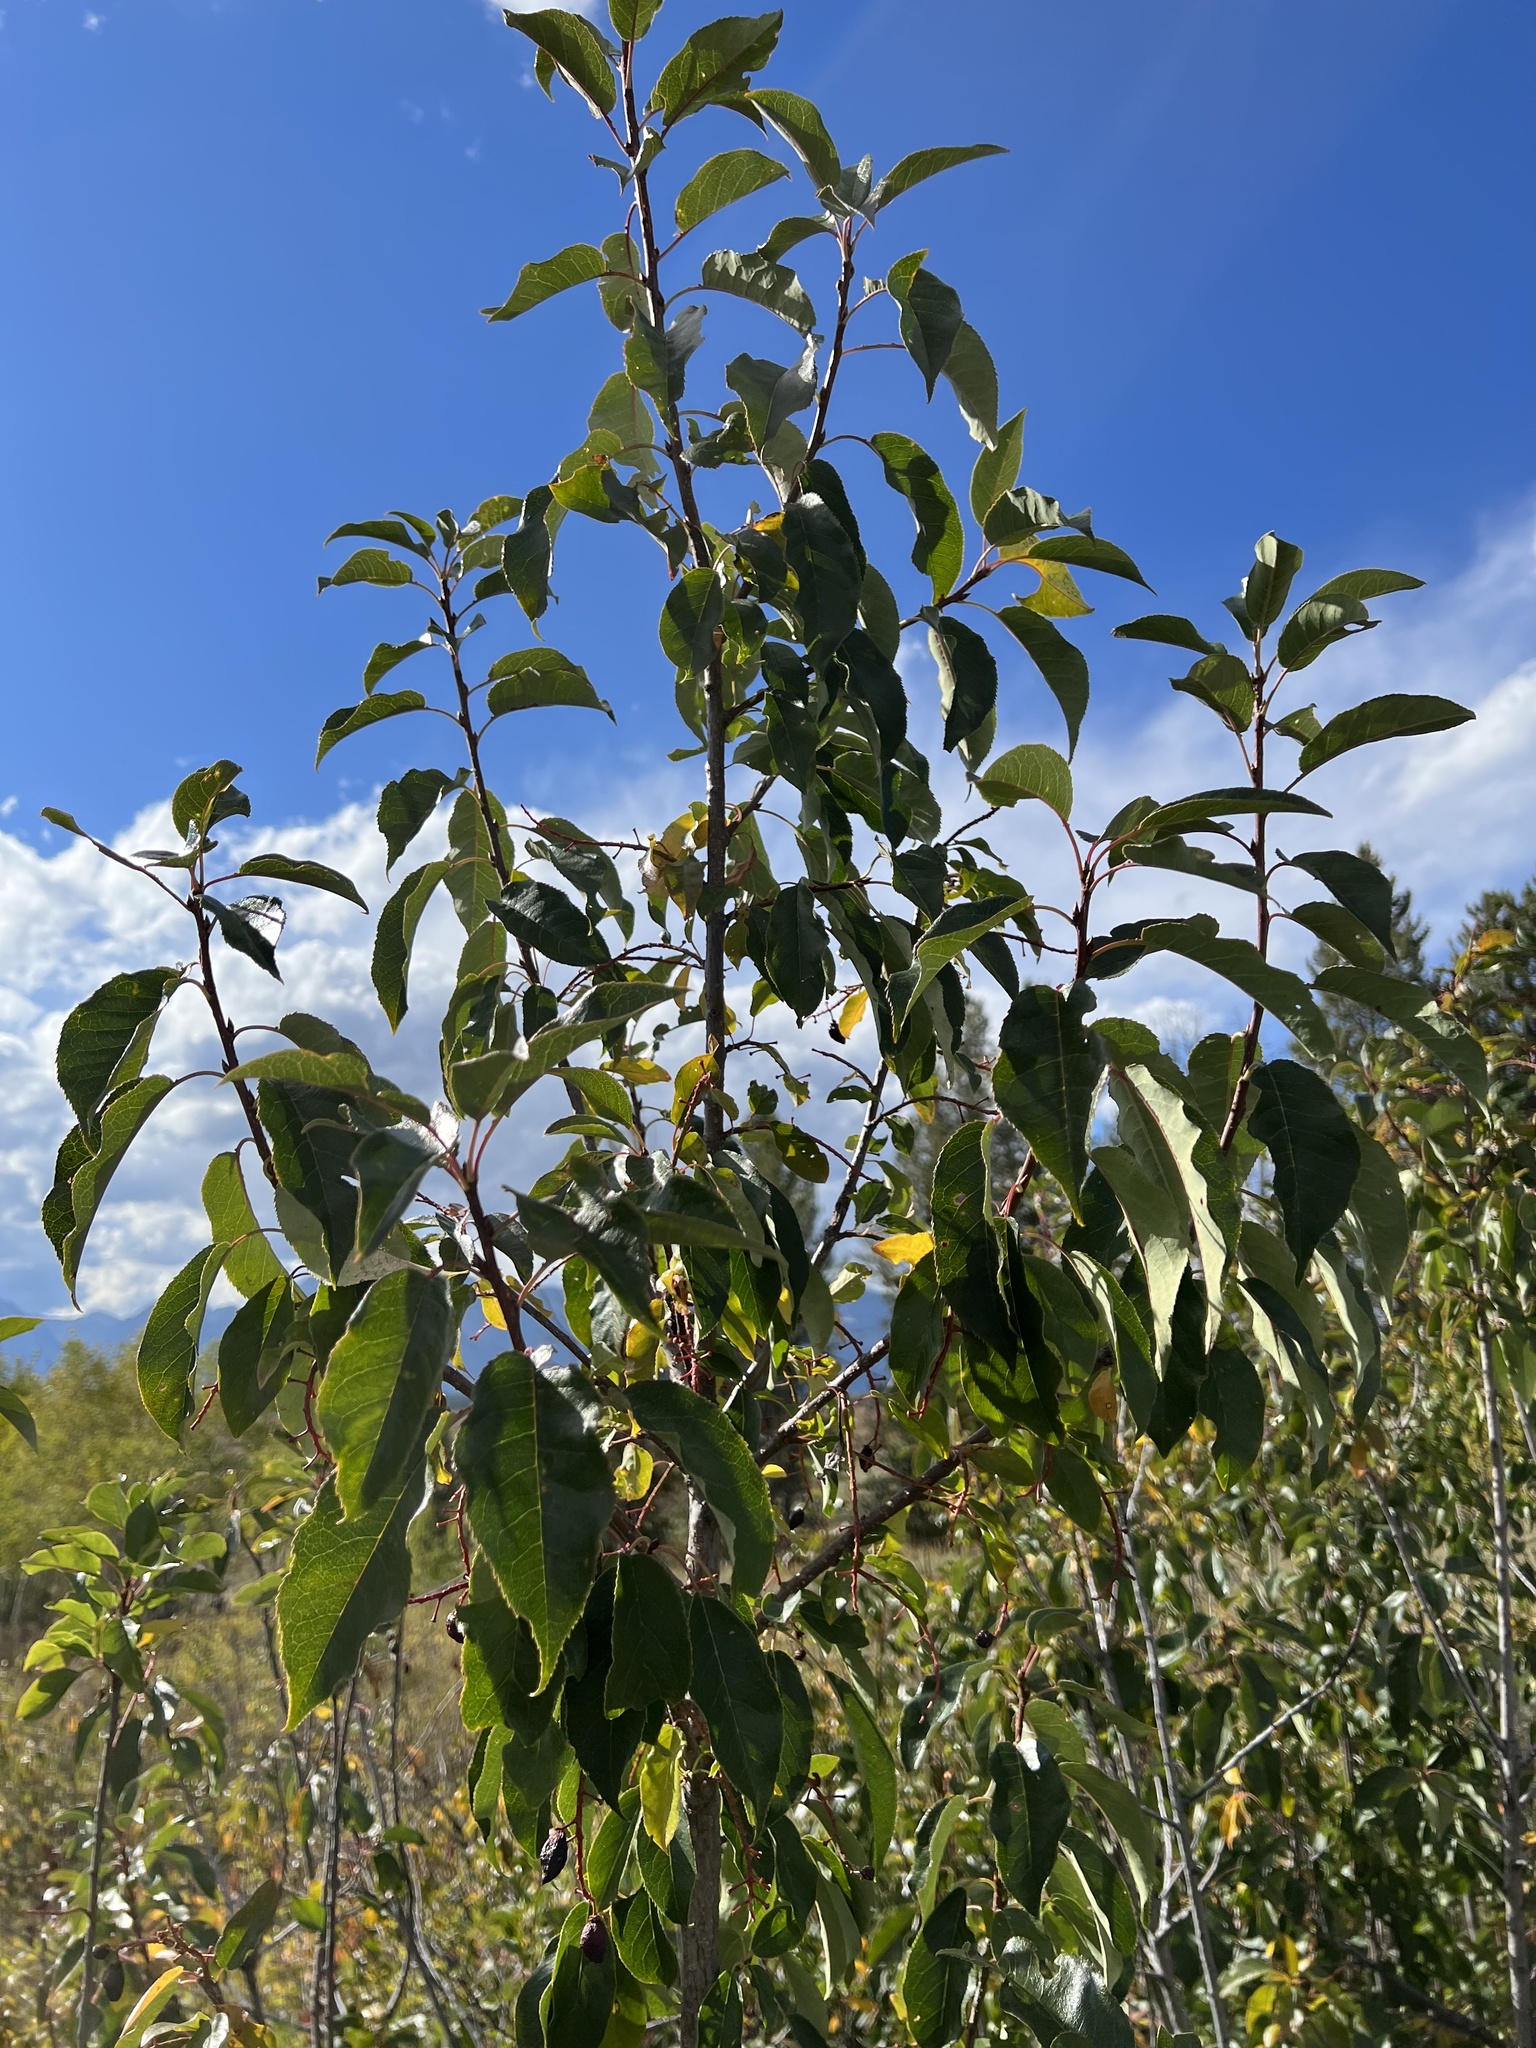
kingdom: Plantae
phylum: Tracheophyta
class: Magnoliopsida
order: Rosales
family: Rosaceae
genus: Prunus
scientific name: Prunus virginiana
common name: Chokecherry
